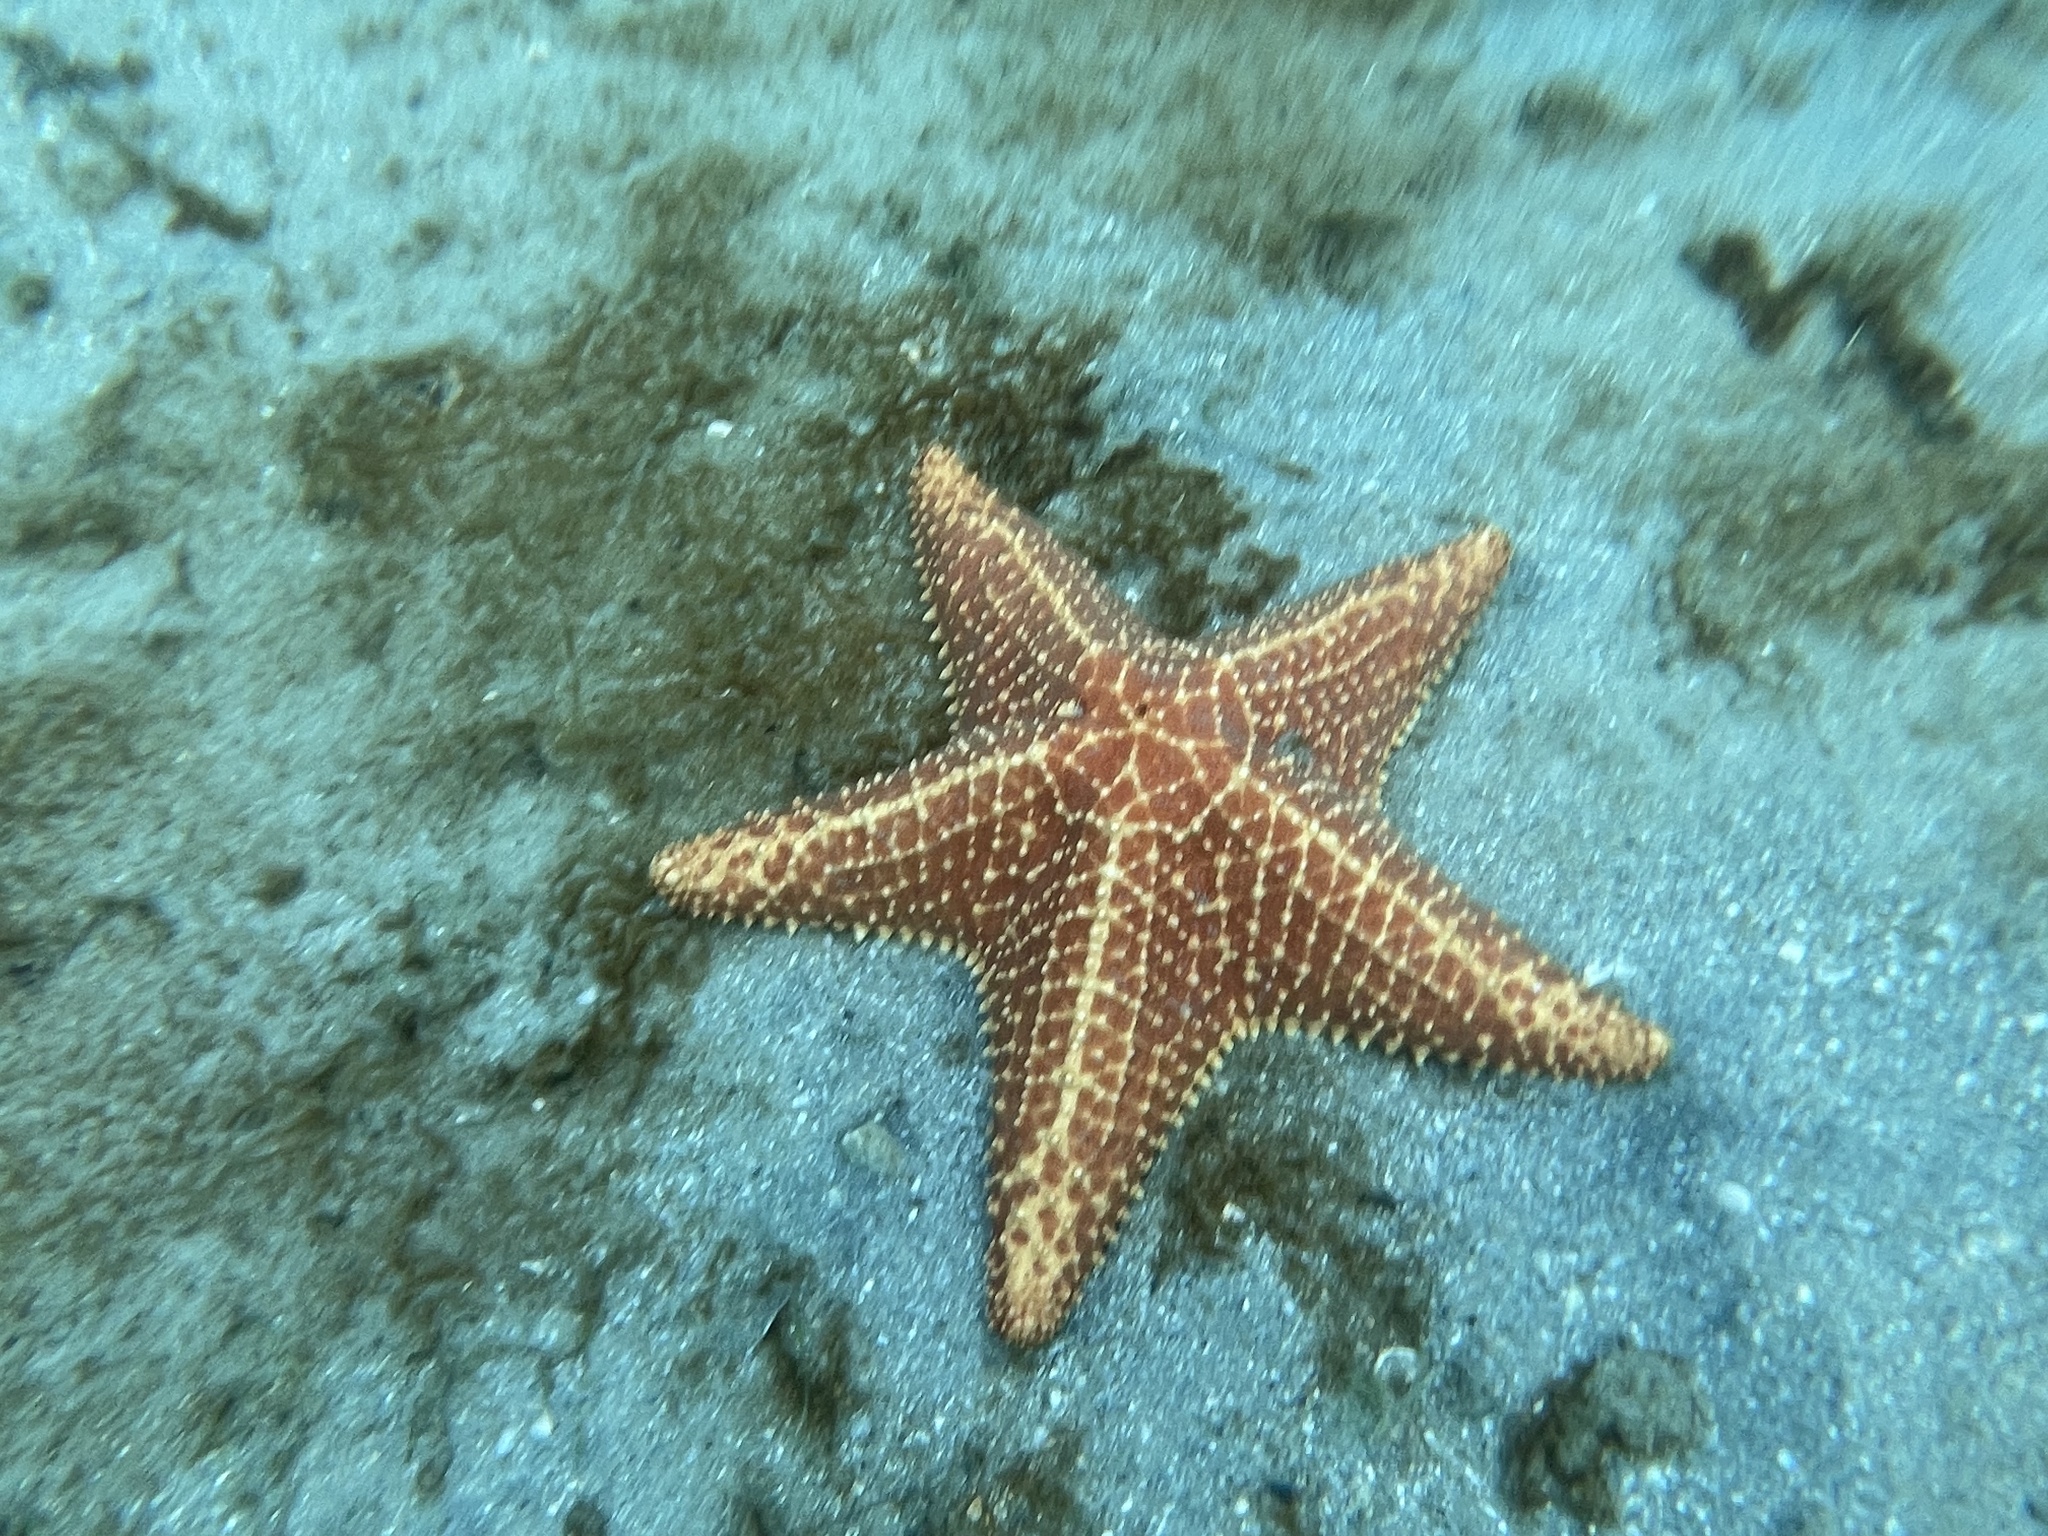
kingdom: Animalia
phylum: Echinodermata
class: Asteroidea
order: Valvatida
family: Oreasteridae
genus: Oreaster
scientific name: Oreaster reticulatus
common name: Cushion sea star
